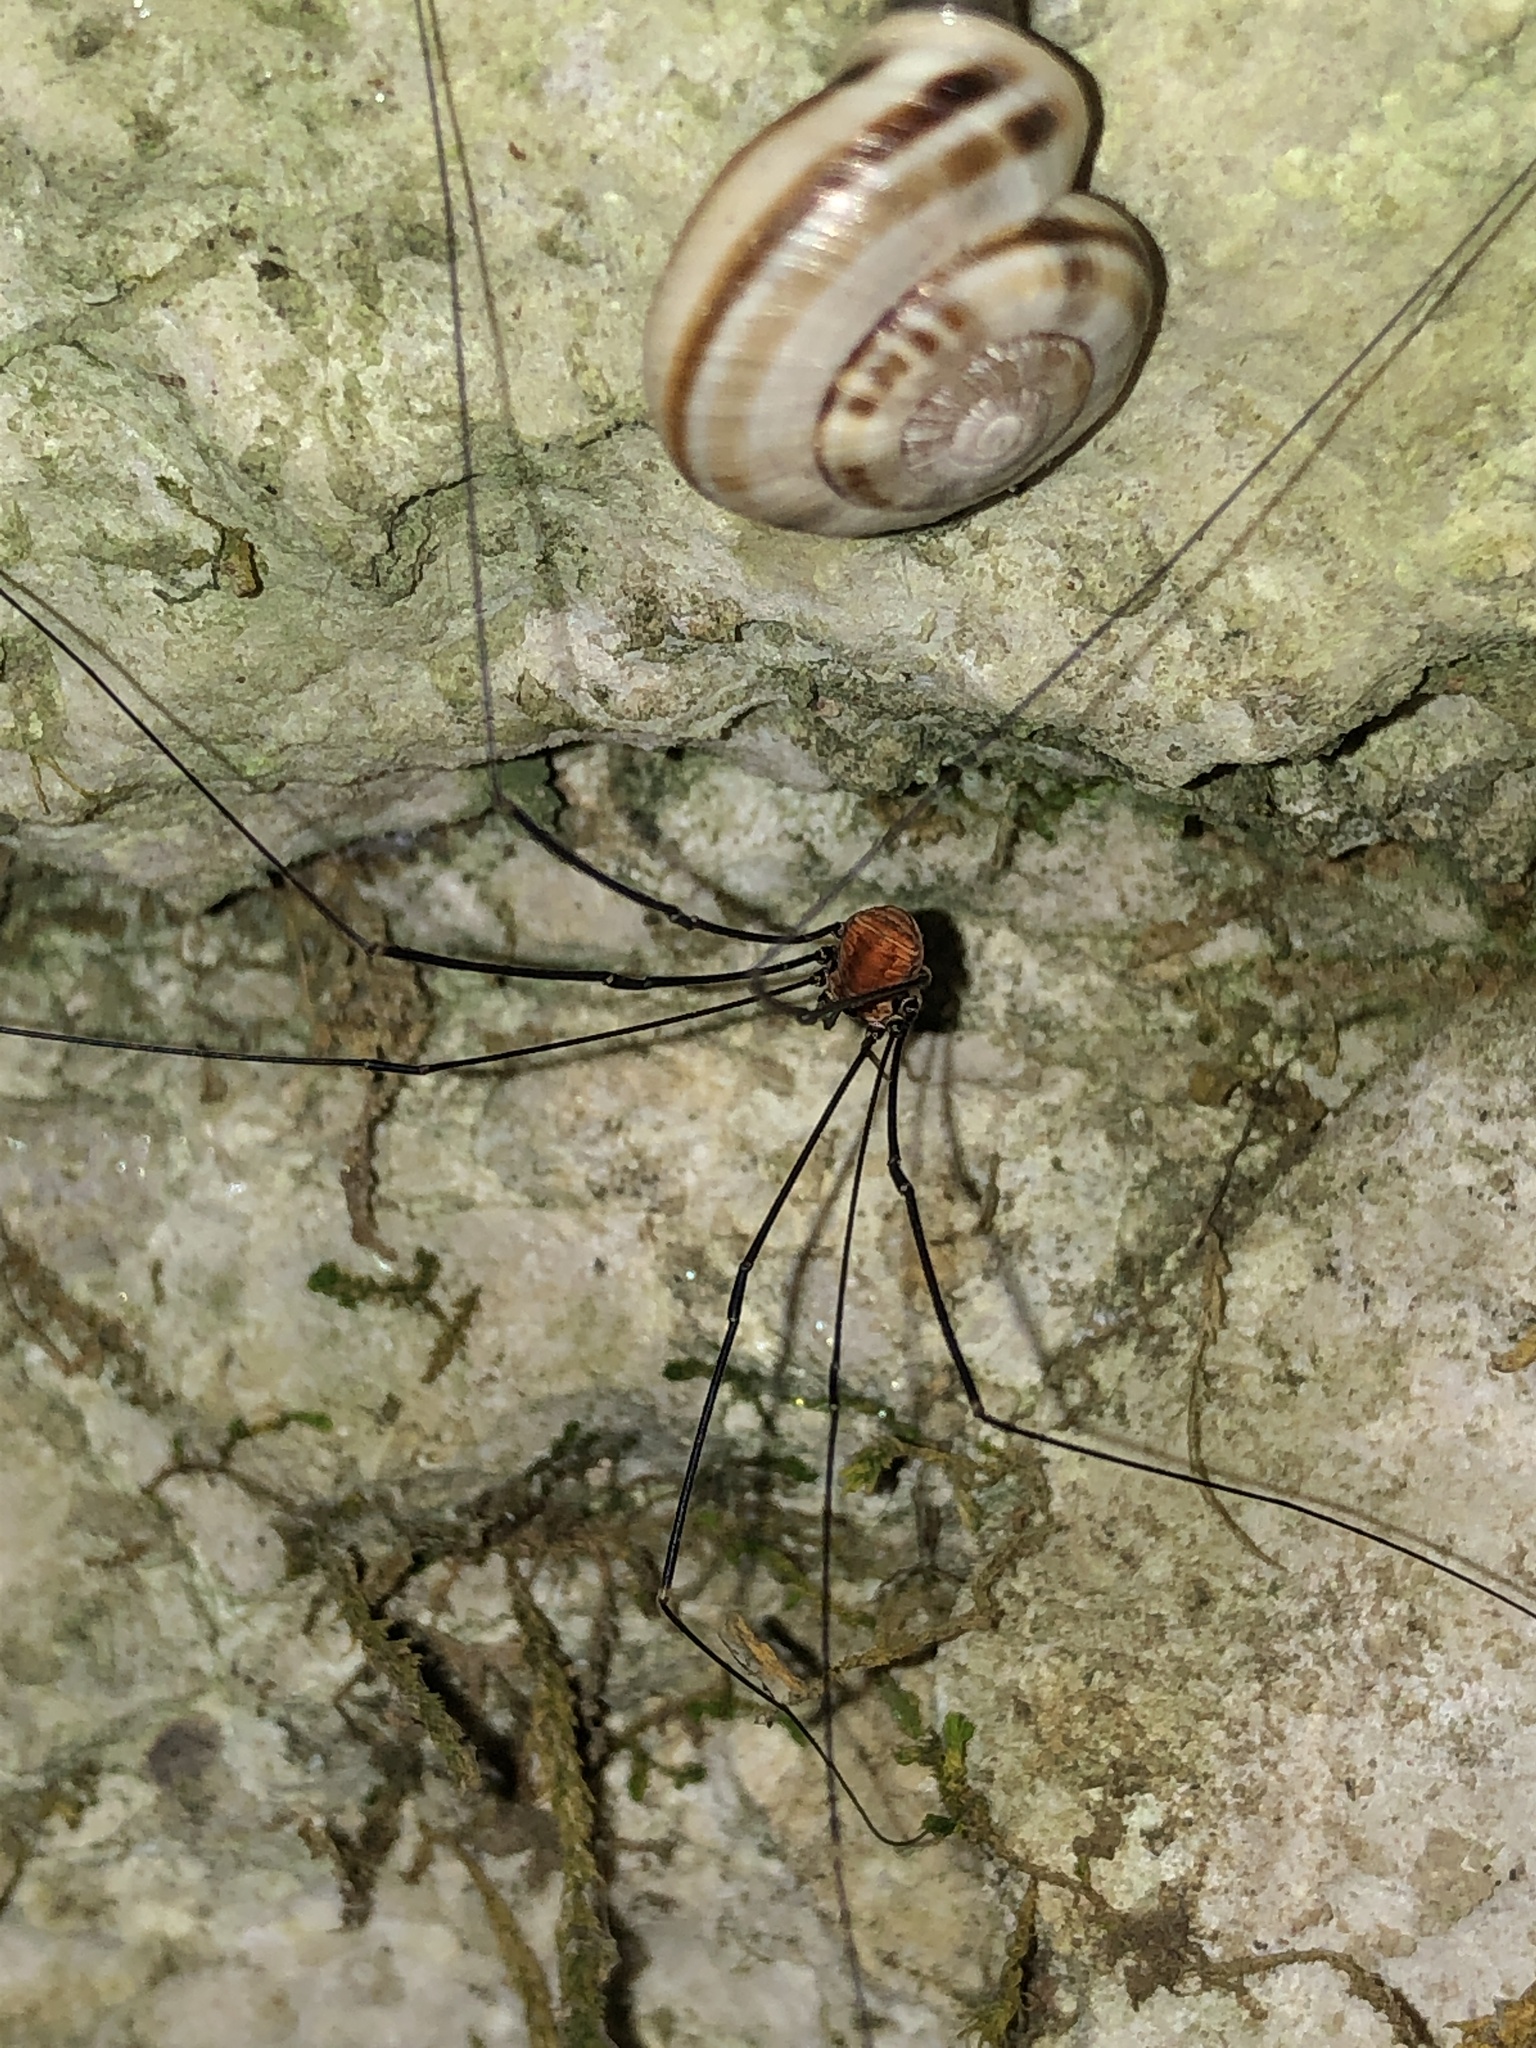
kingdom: Animalia
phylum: Arthropoda
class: Arachnida
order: Opiliones
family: Sclerosomatidae
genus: Leiobunum
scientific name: Leiobunum limbatum
